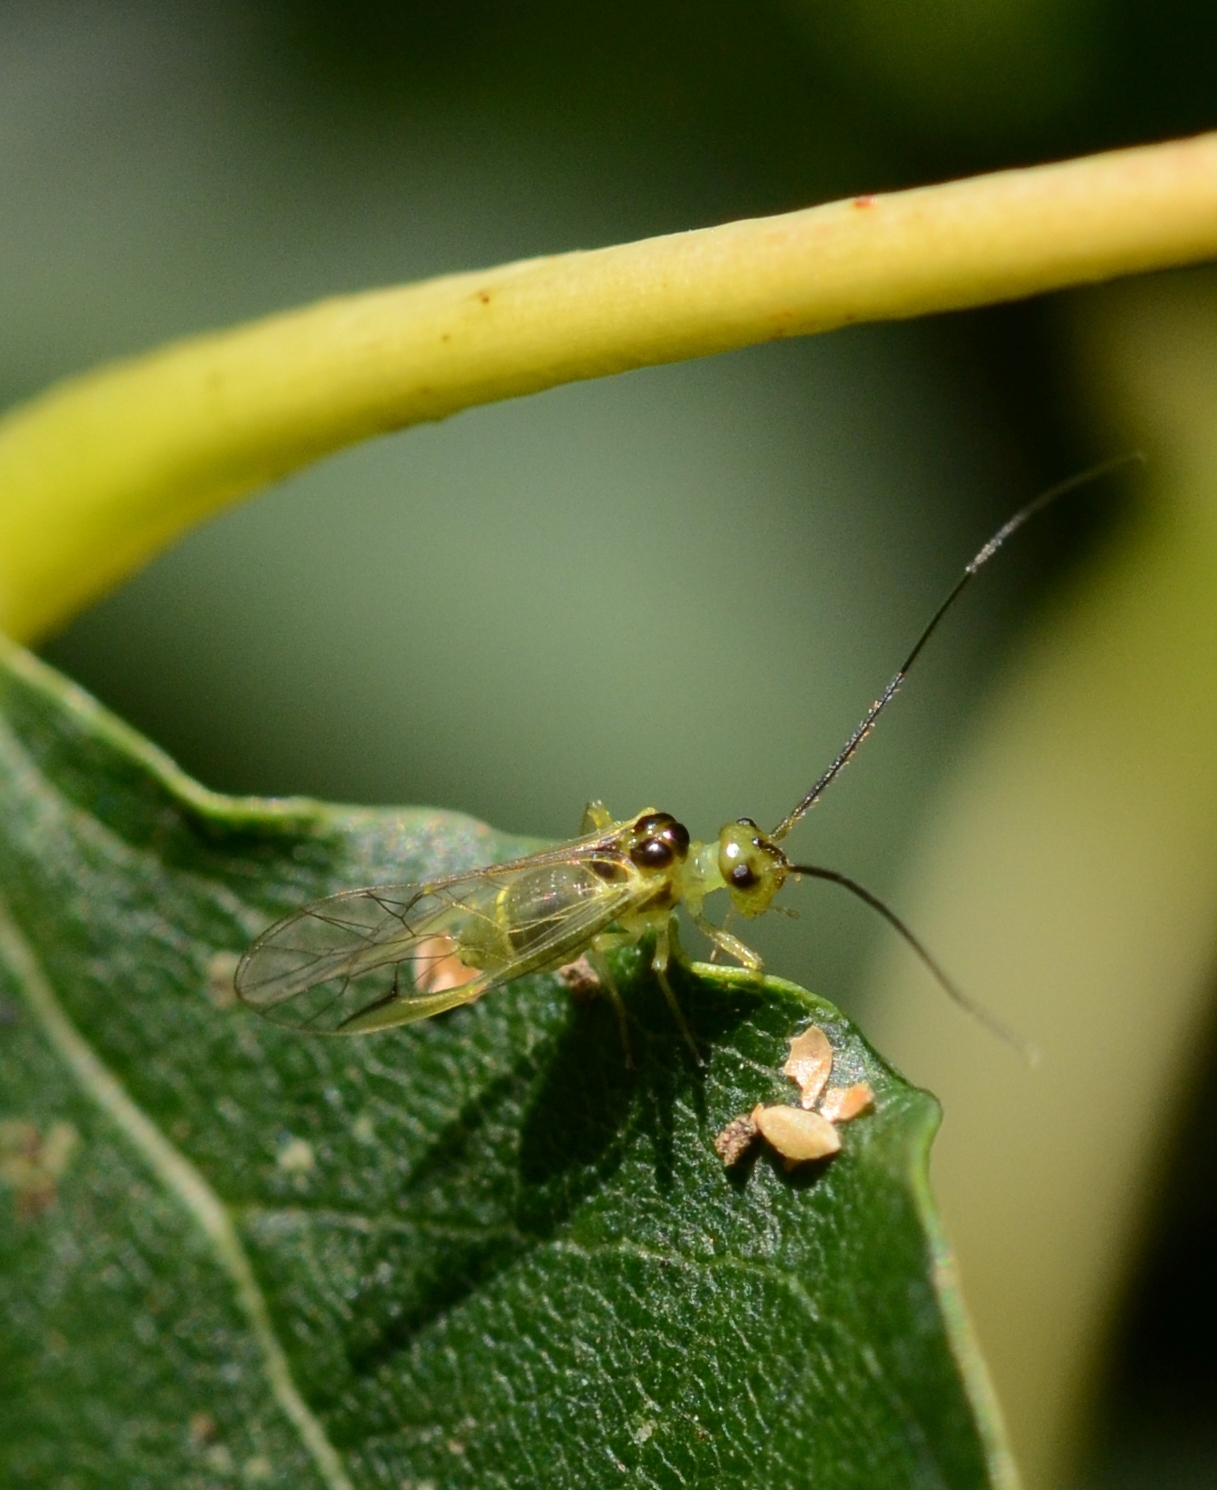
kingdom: Animalia
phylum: Arthropoda
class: Insecta
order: Psocodea
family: Stenopsocidae
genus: Stenopsocus
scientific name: Stenopsocus stigmaticus
